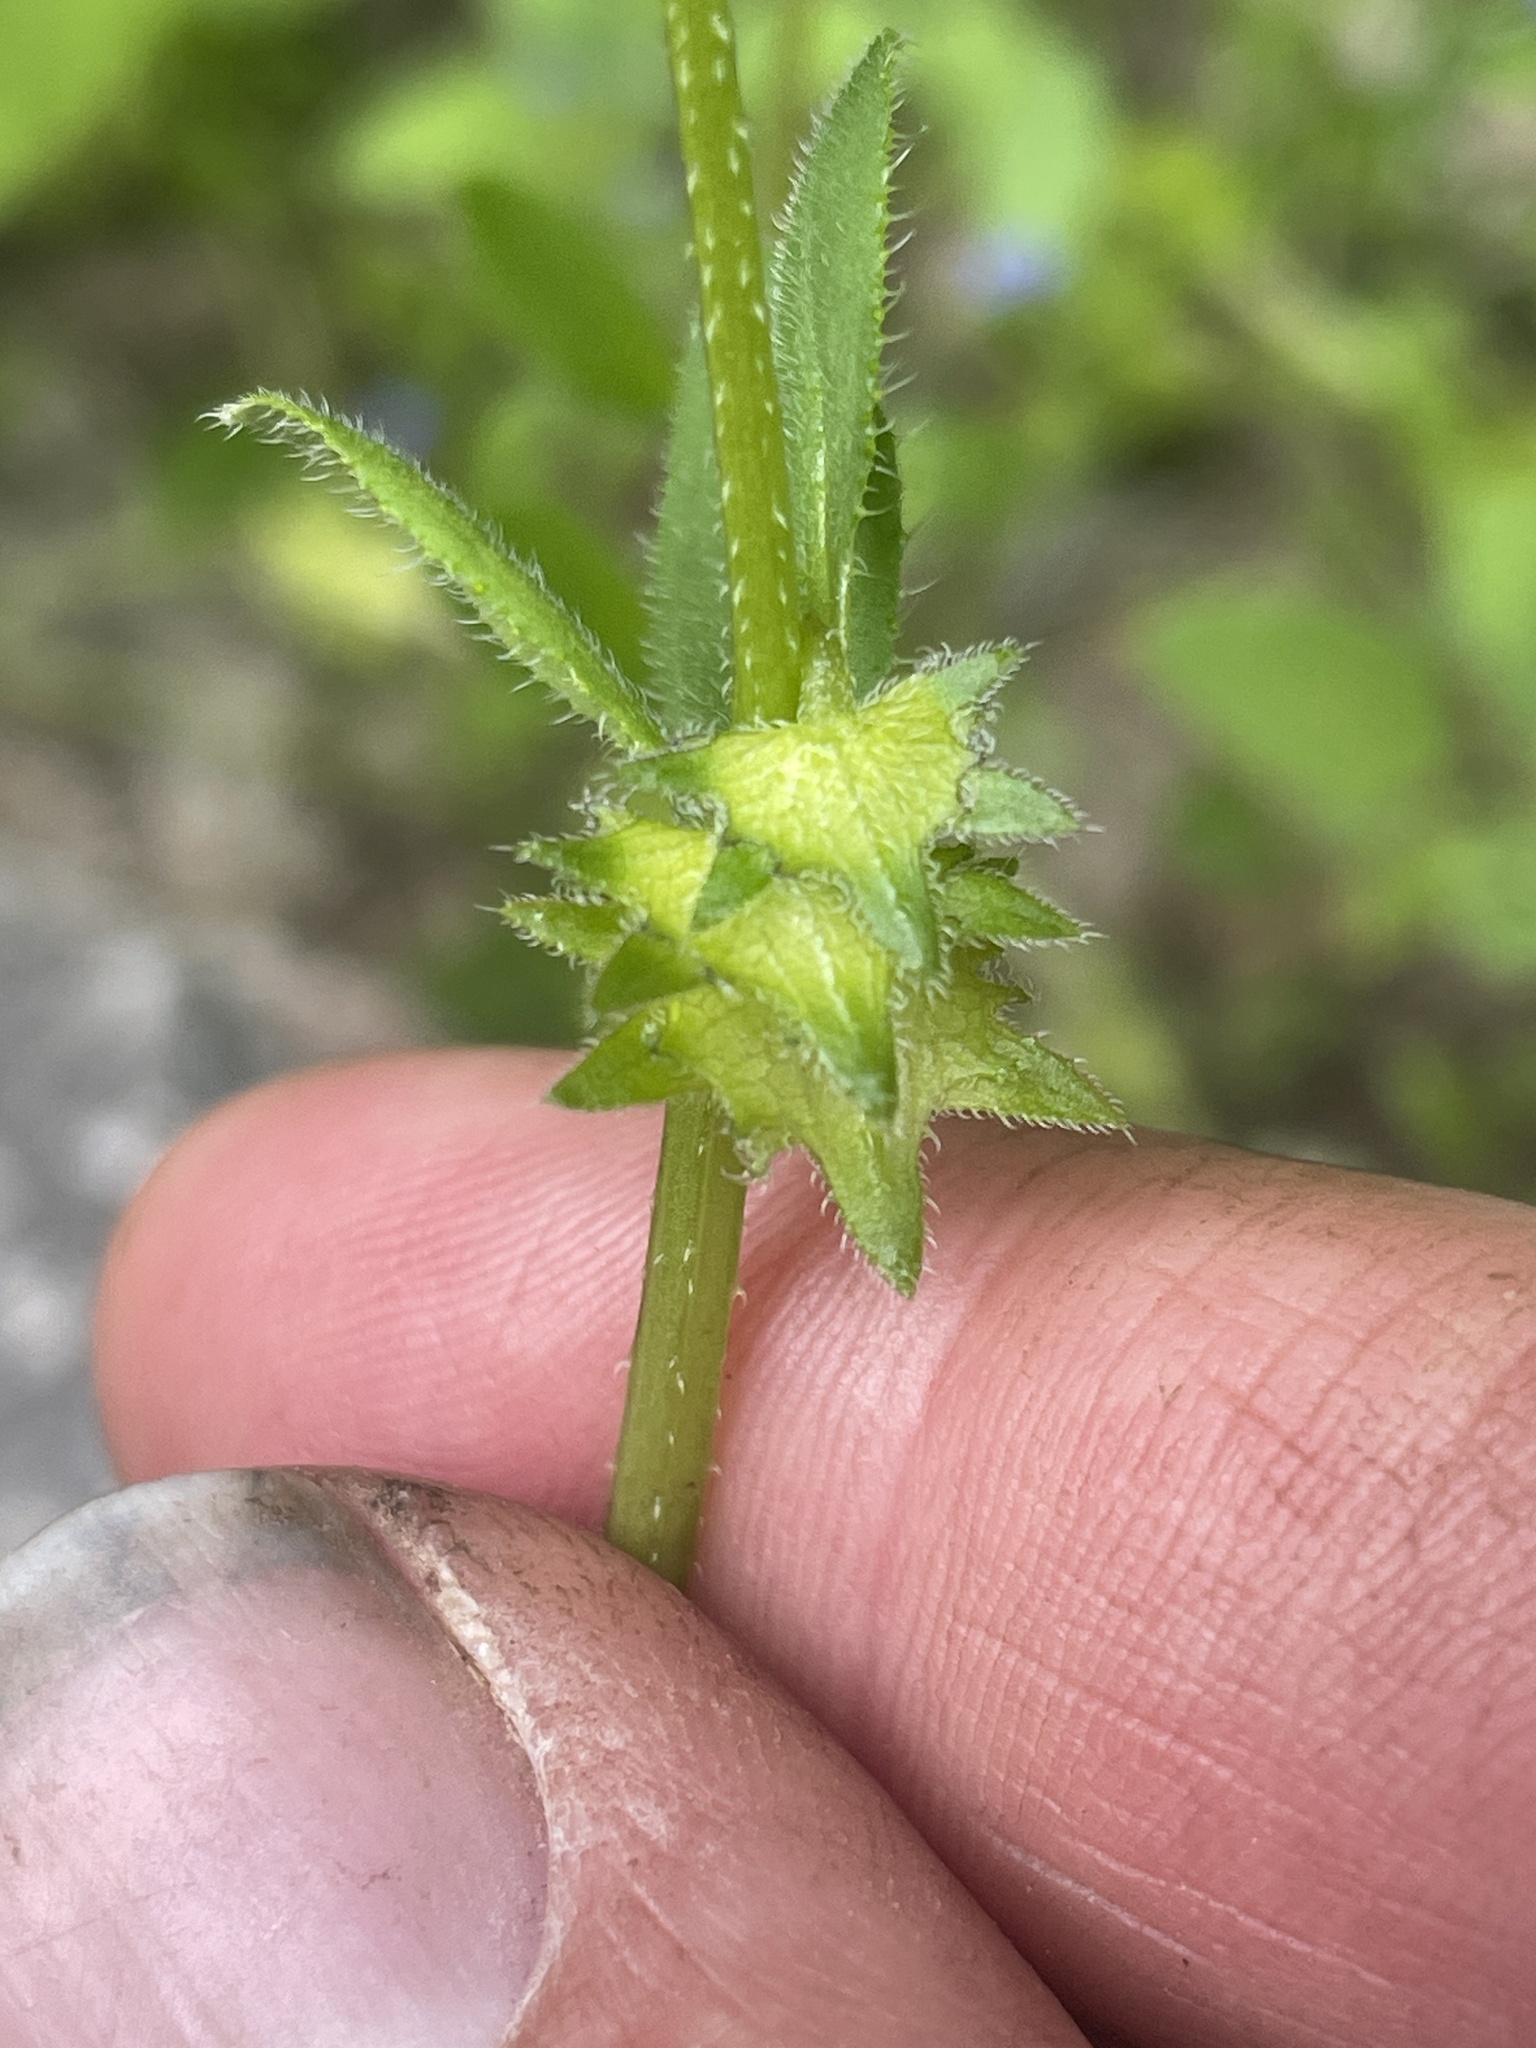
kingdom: Plantae
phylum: Tracheophyta
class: Magnoliopsida
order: Boraginales
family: Boraginaceae
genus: Asperugo
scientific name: Asperugo procumbens
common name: Madwort
